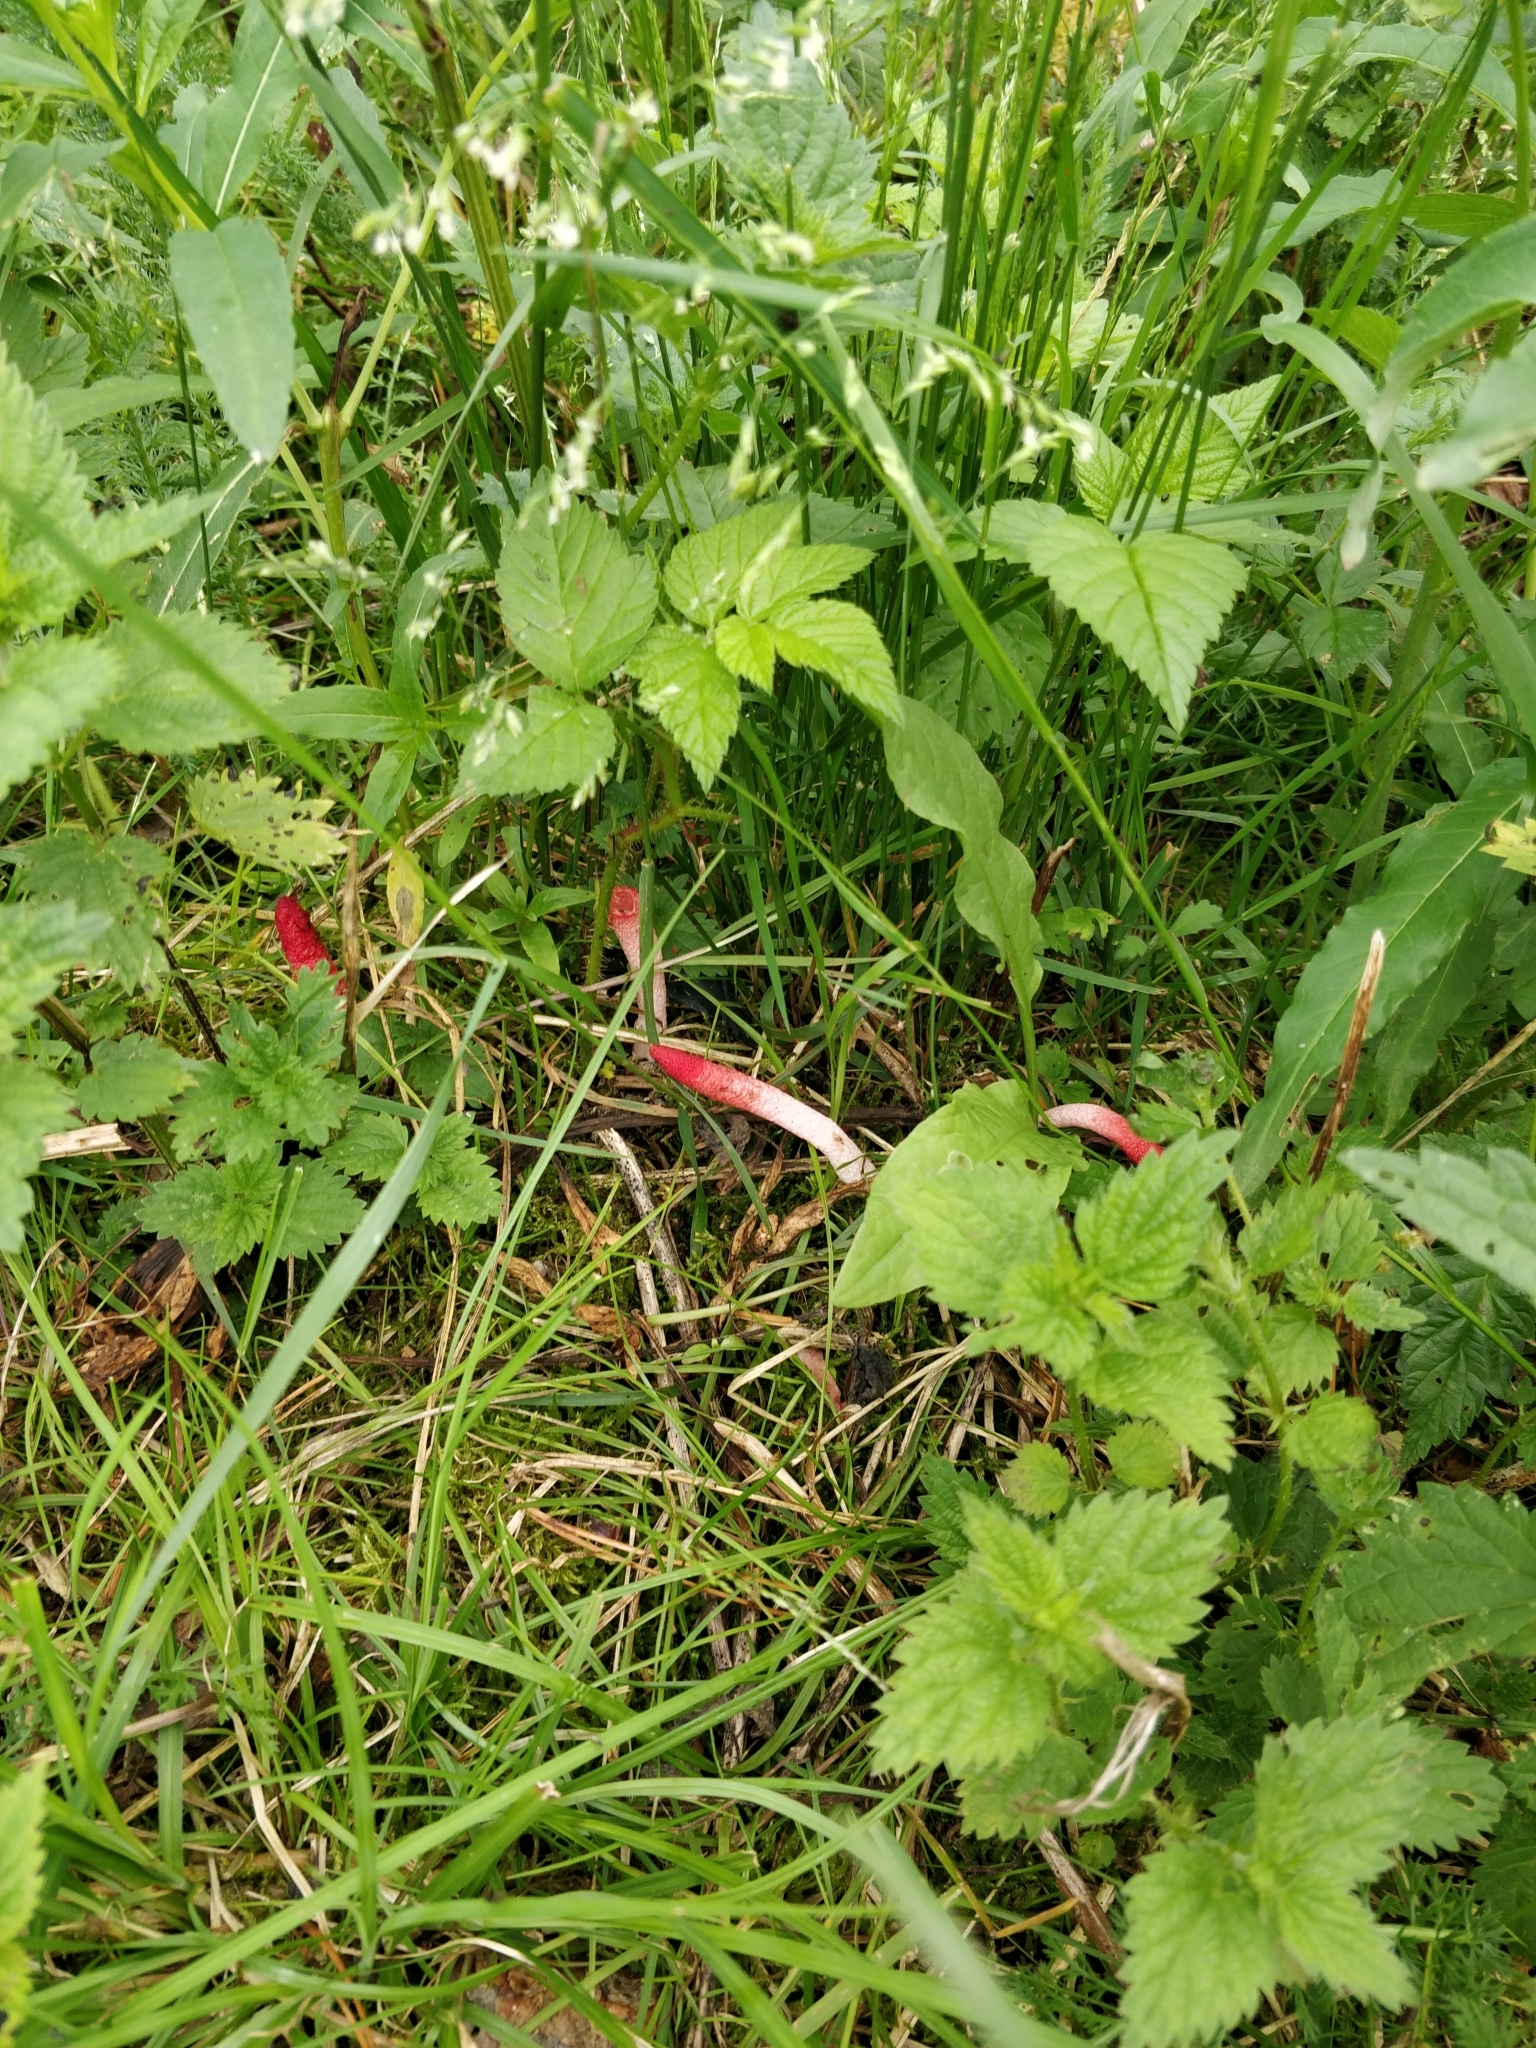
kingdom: Fungi
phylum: Basidiomycota
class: Agaricomycetes
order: Phallales
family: Phallaceae
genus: Mutinus
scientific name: Mutinus ravenelii
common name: Red stinkhorn
